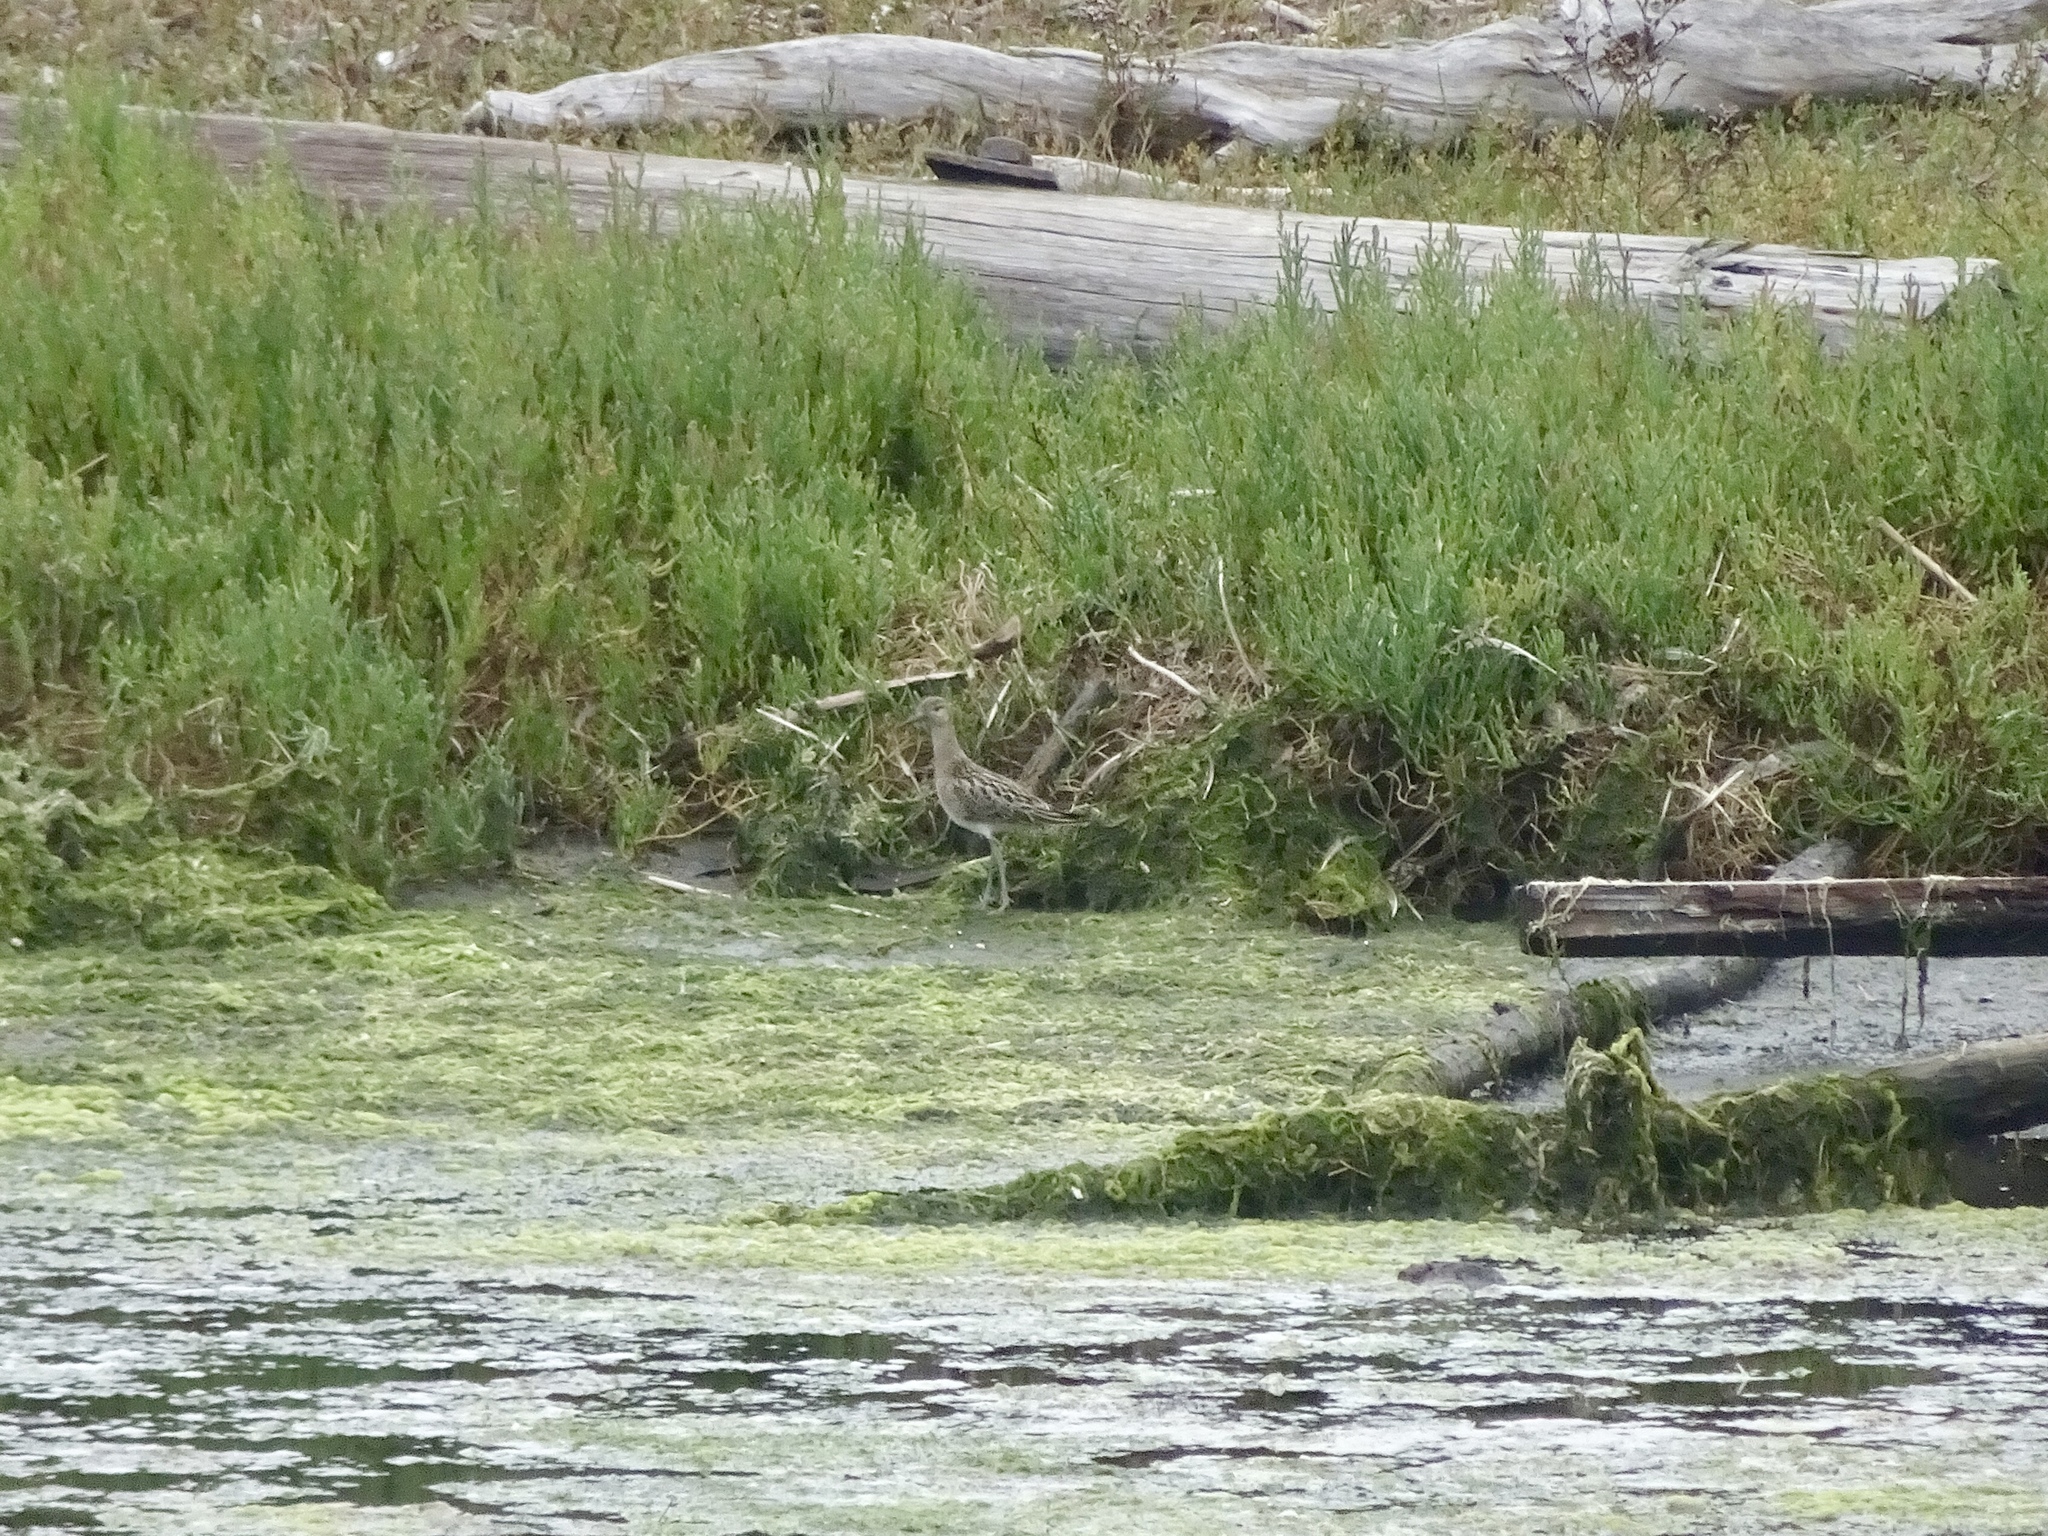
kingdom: Animalia
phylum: Chordata
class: Aves
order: Charadriiformes
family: Scolopacidae
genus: Calidris
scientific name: Calidris pugnax
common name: Ruff
